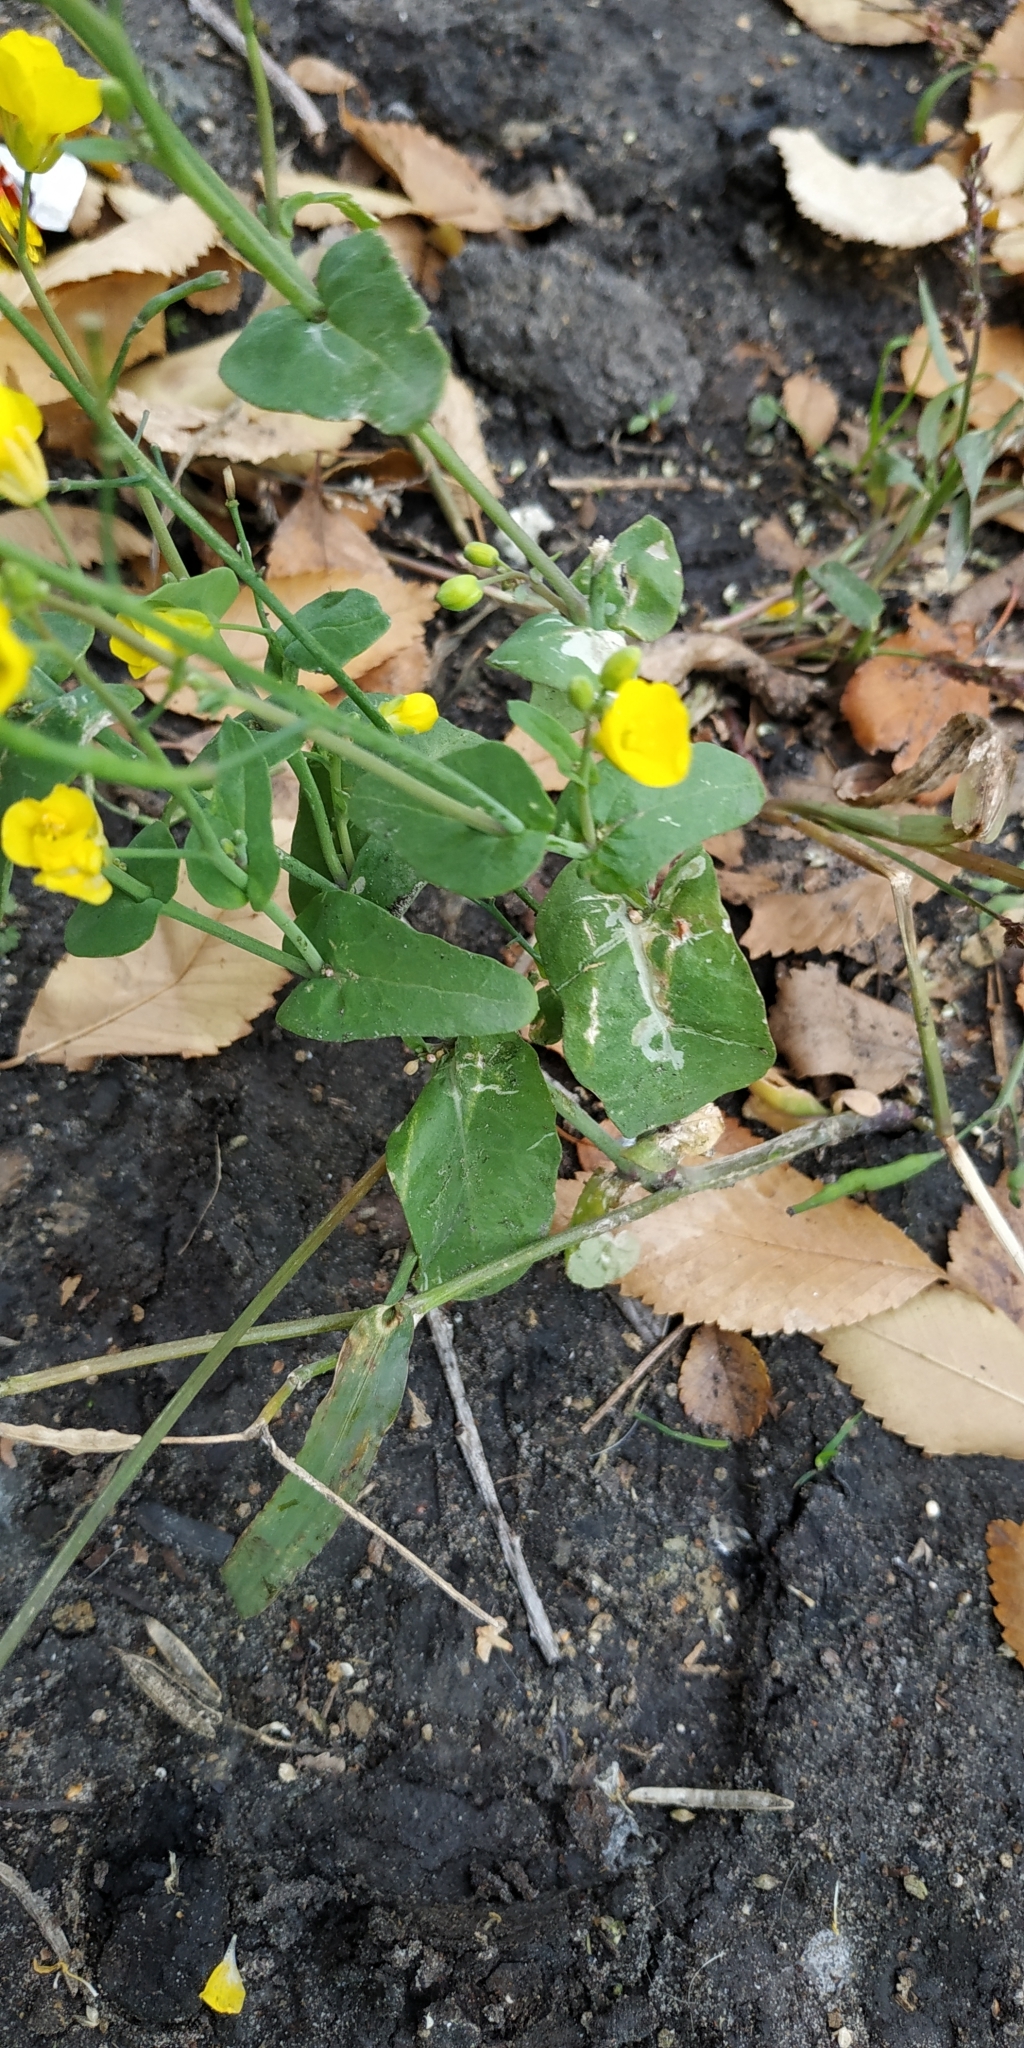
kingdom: Plantae
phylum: Tracheophyta
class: Magnoliopsida
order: Brassicales
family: Brassicaceae
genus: Brassica
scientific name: Brassica rapa
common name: Field mustard
